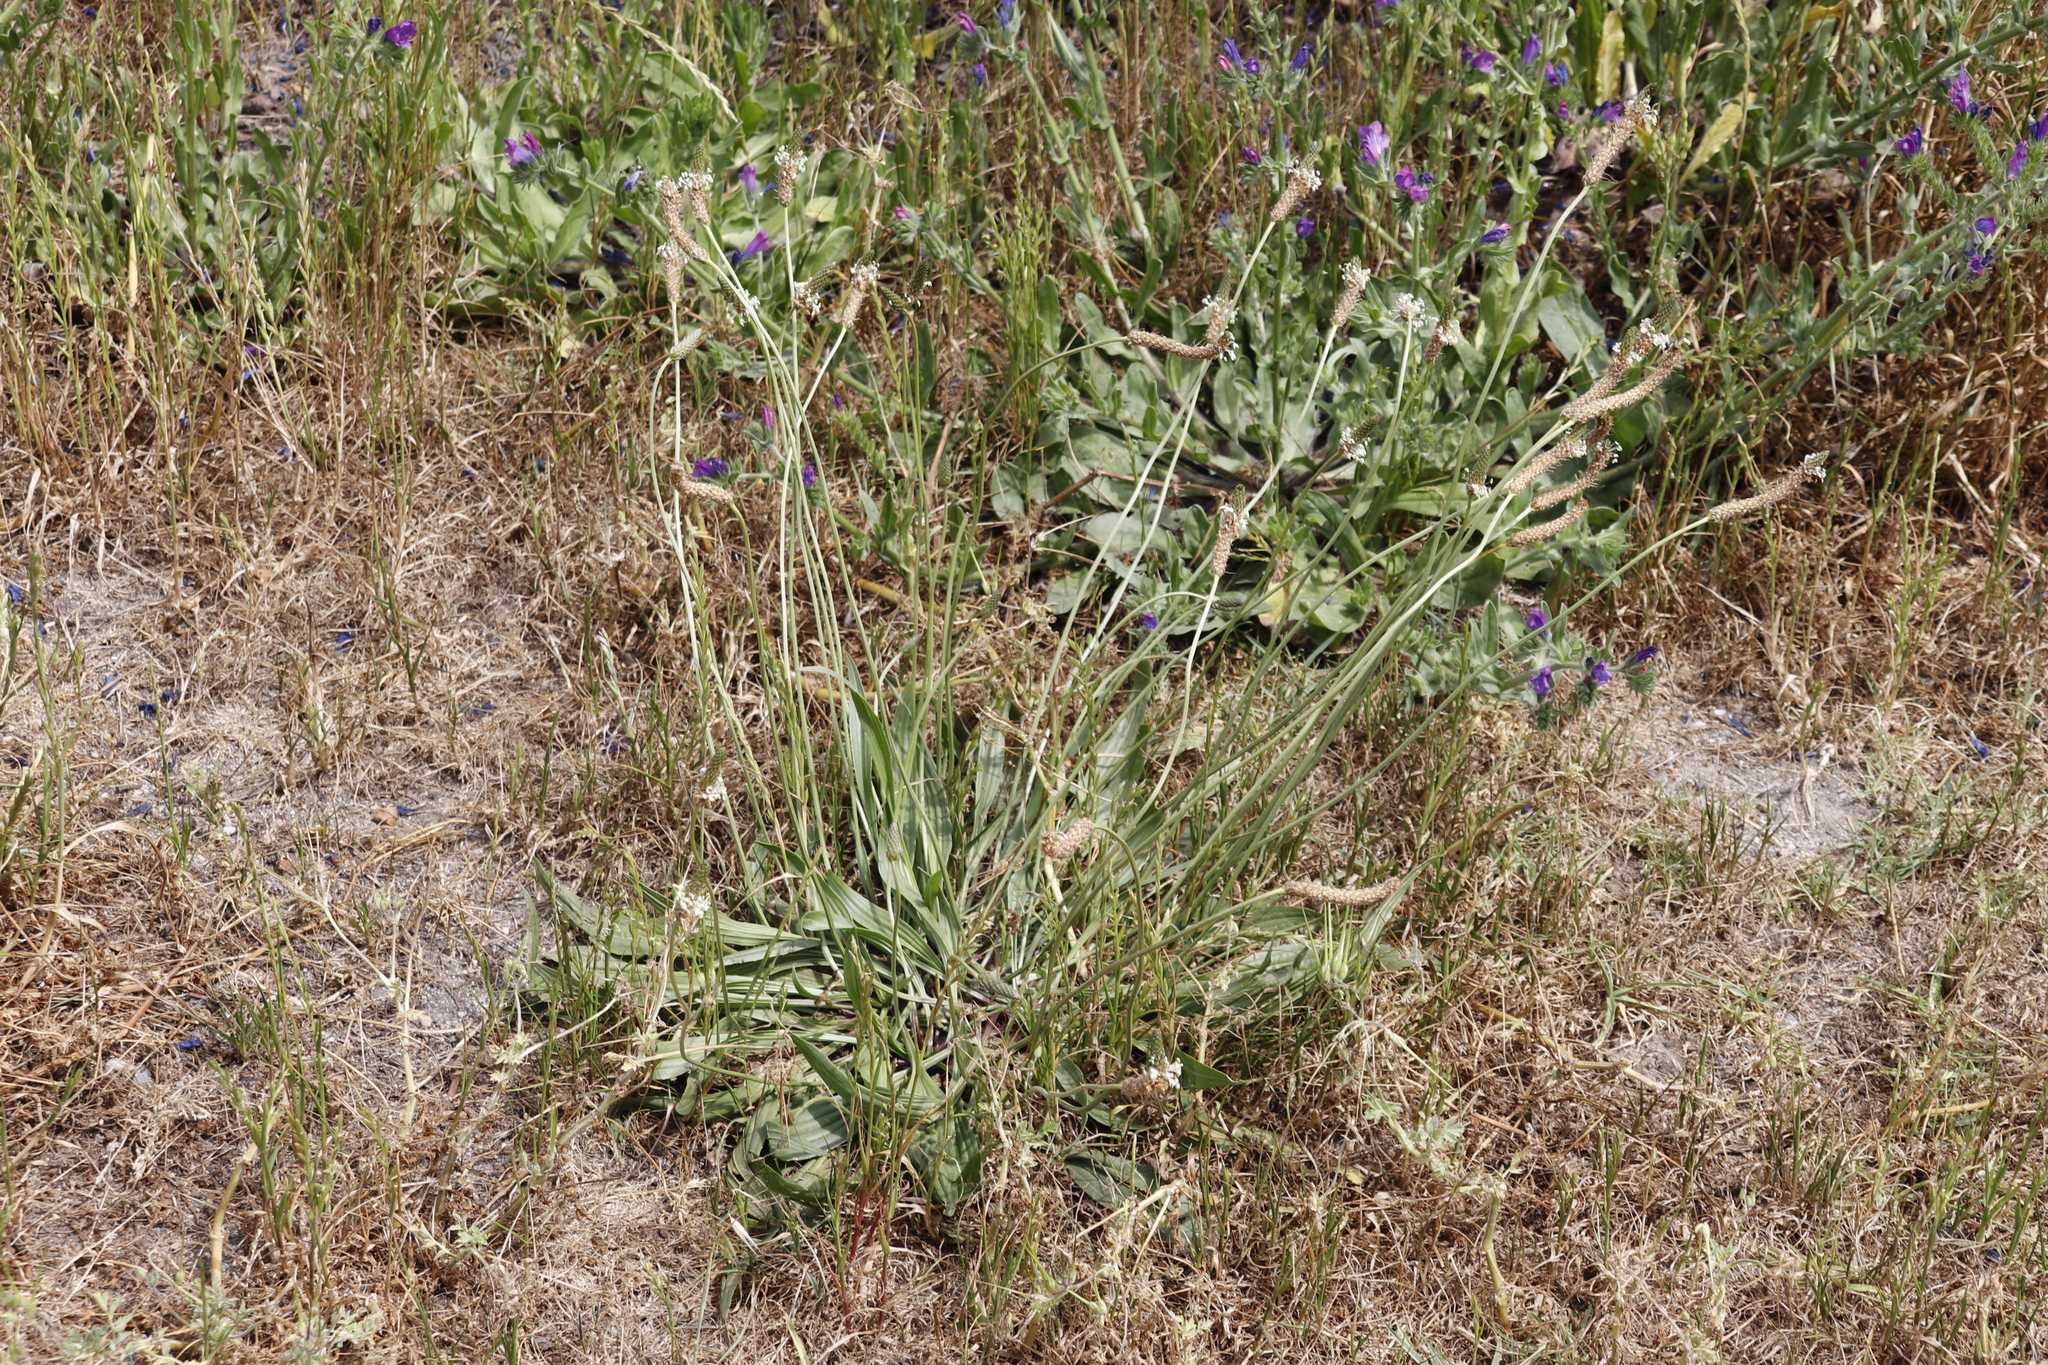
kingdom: Plantae
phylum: Tracheophyta
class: Magnoliopsida
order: Lamiales
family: Plantaginaceae
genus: Plantago
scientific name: Plantago lanceolata
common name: Ribwort plantain
